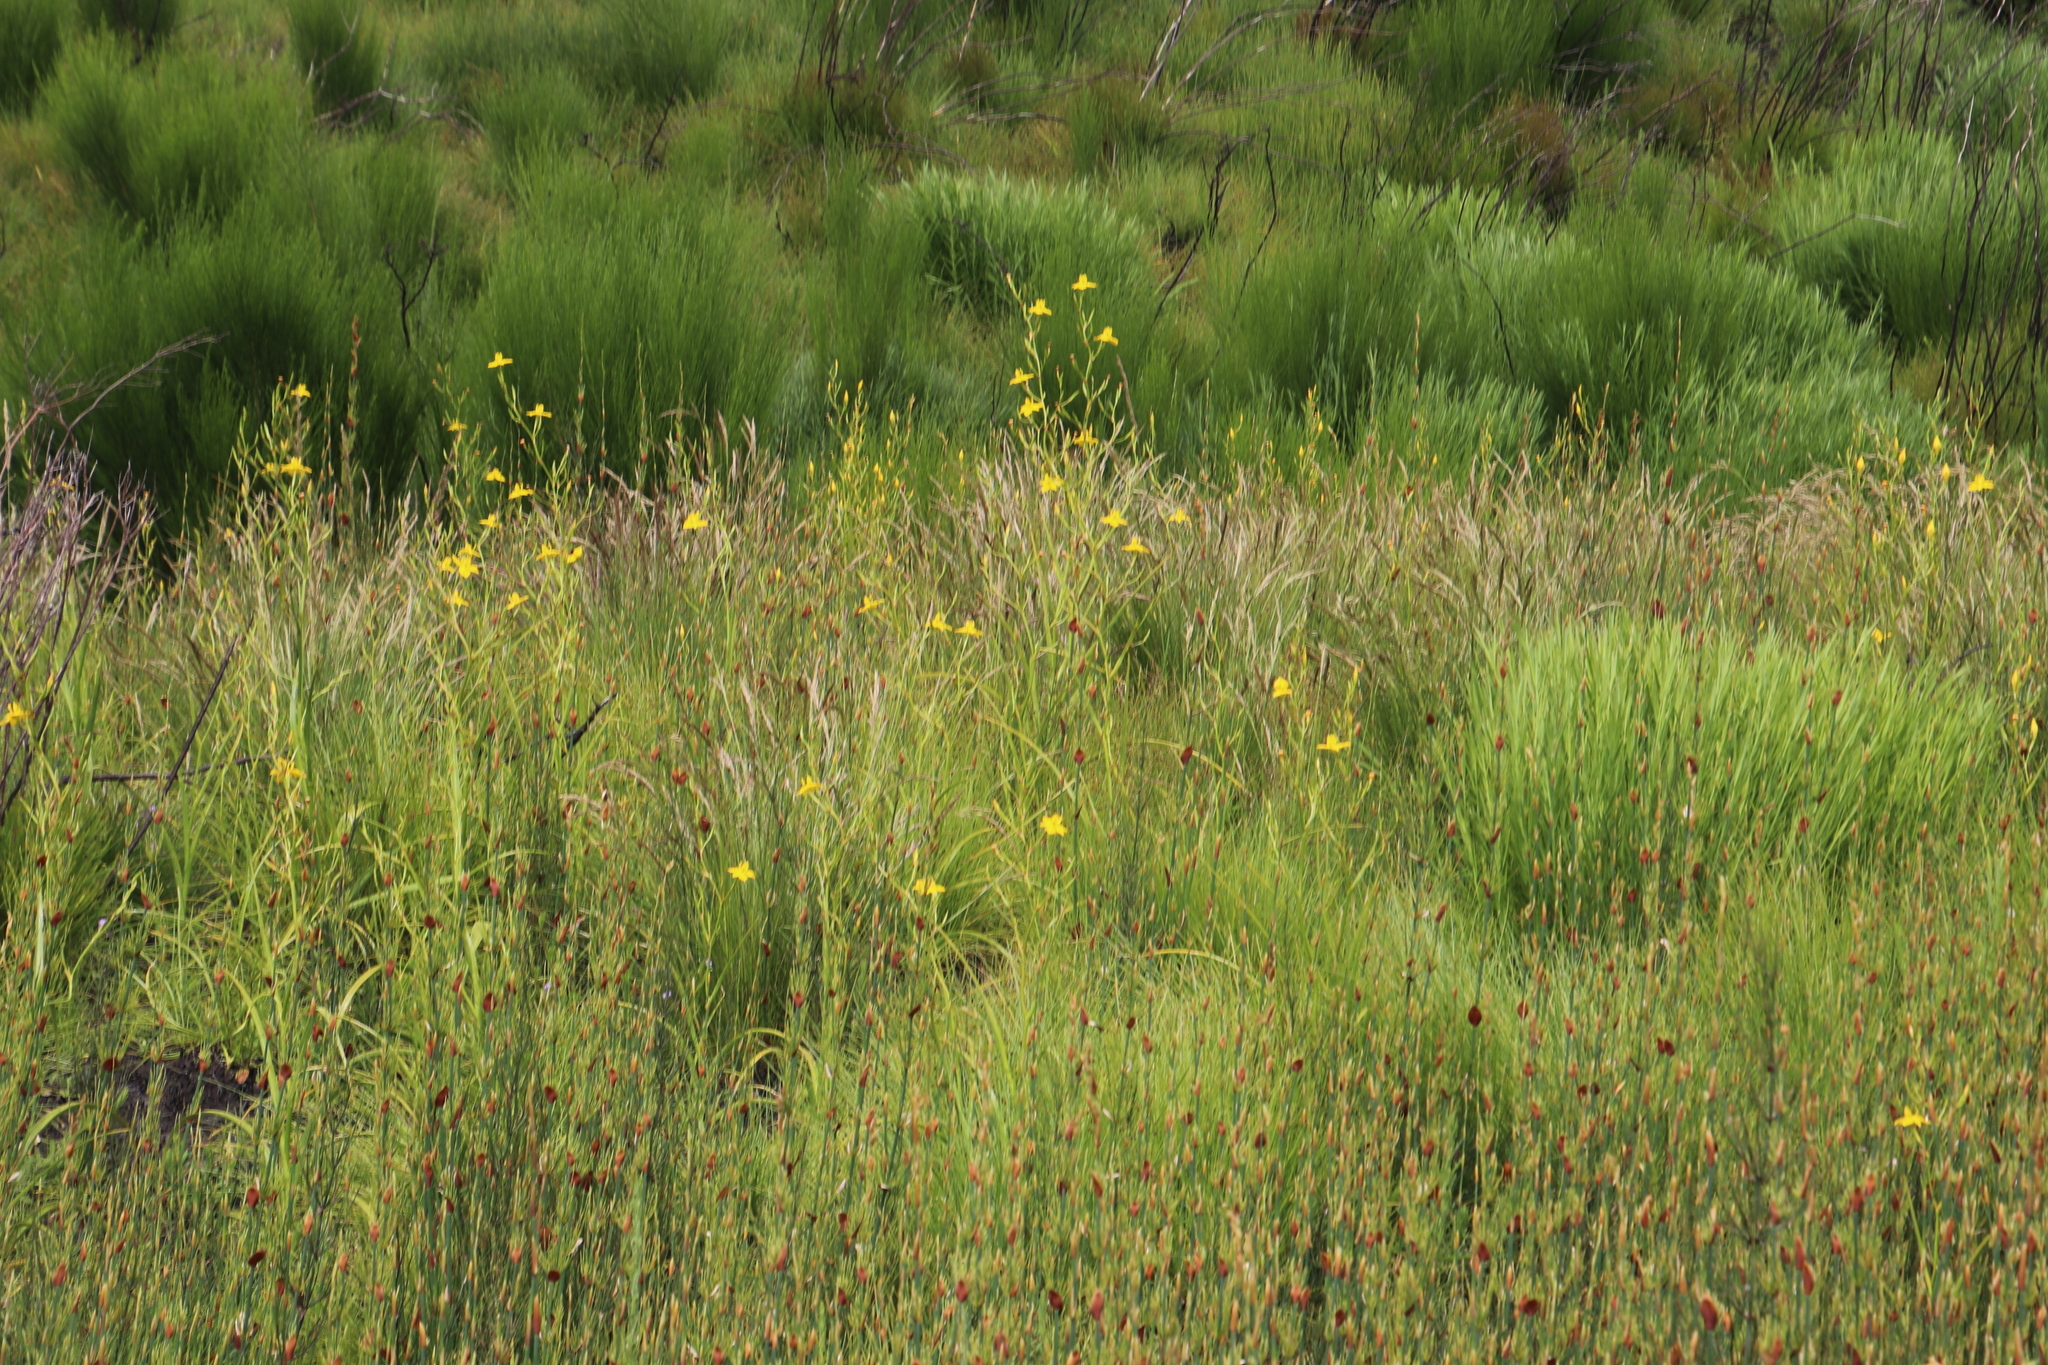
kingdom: Plantae
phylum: Tracheophyta
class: Liliopsida
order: Asparagales
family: Iridaceae
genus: Moraea
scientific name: Moraea ramosissima
